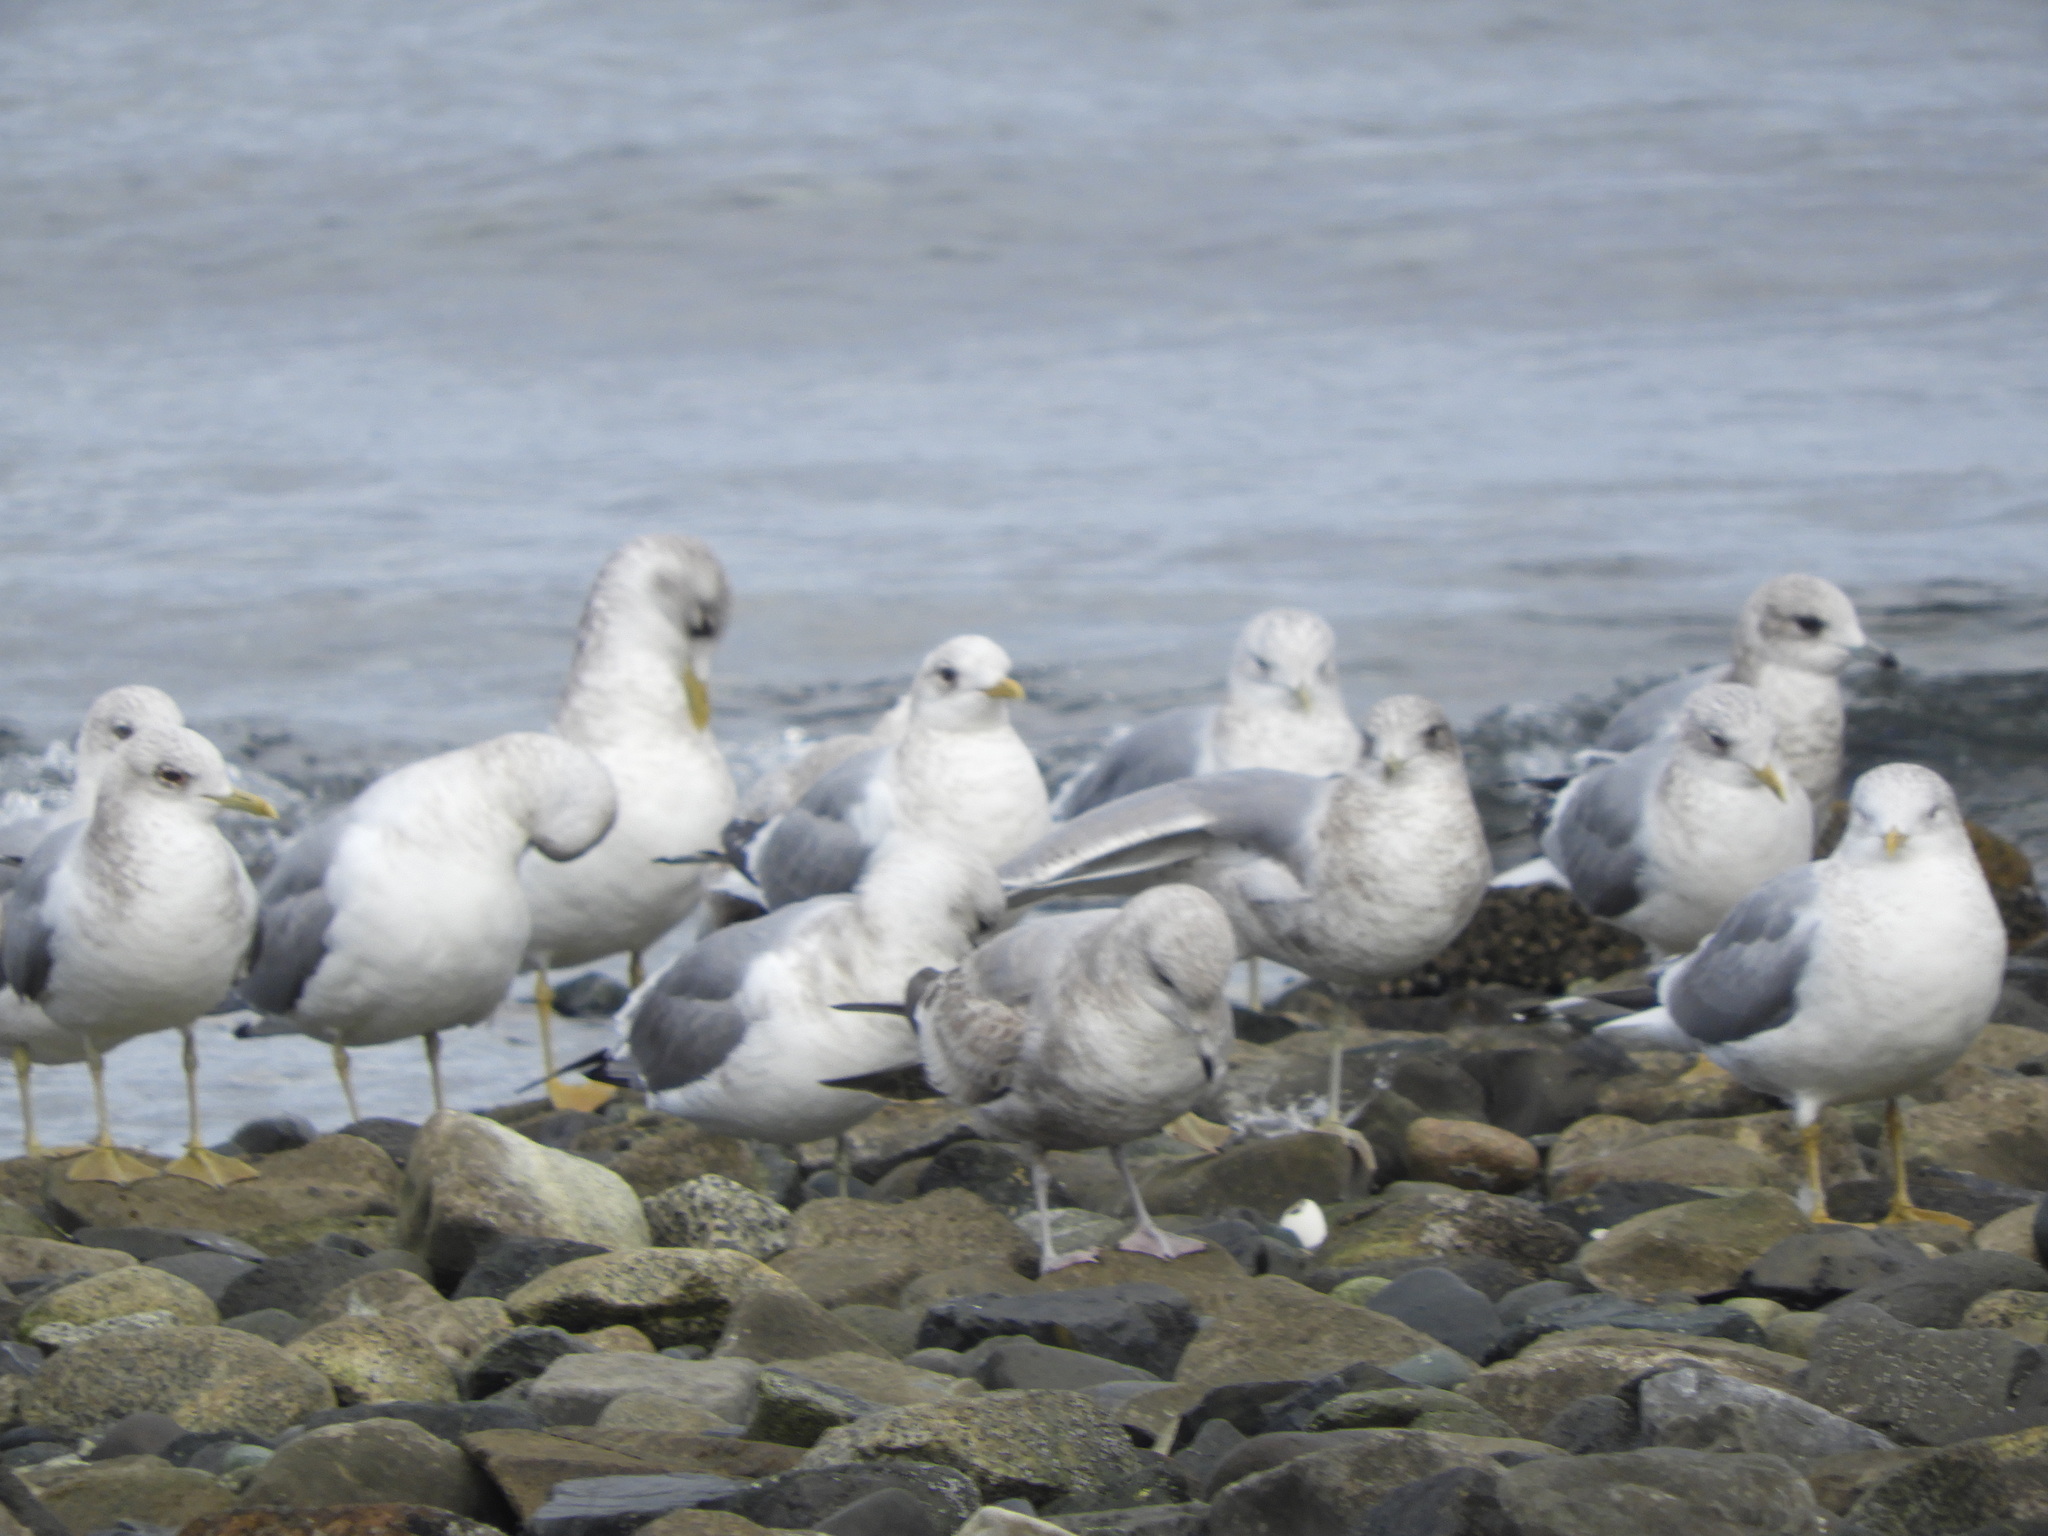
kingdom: Animalia
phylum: Chordata
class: Aves
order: Charadriiformes
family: Laridae
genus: Larus
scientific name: Larus brachyrhynchus
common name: Short-billed gull
